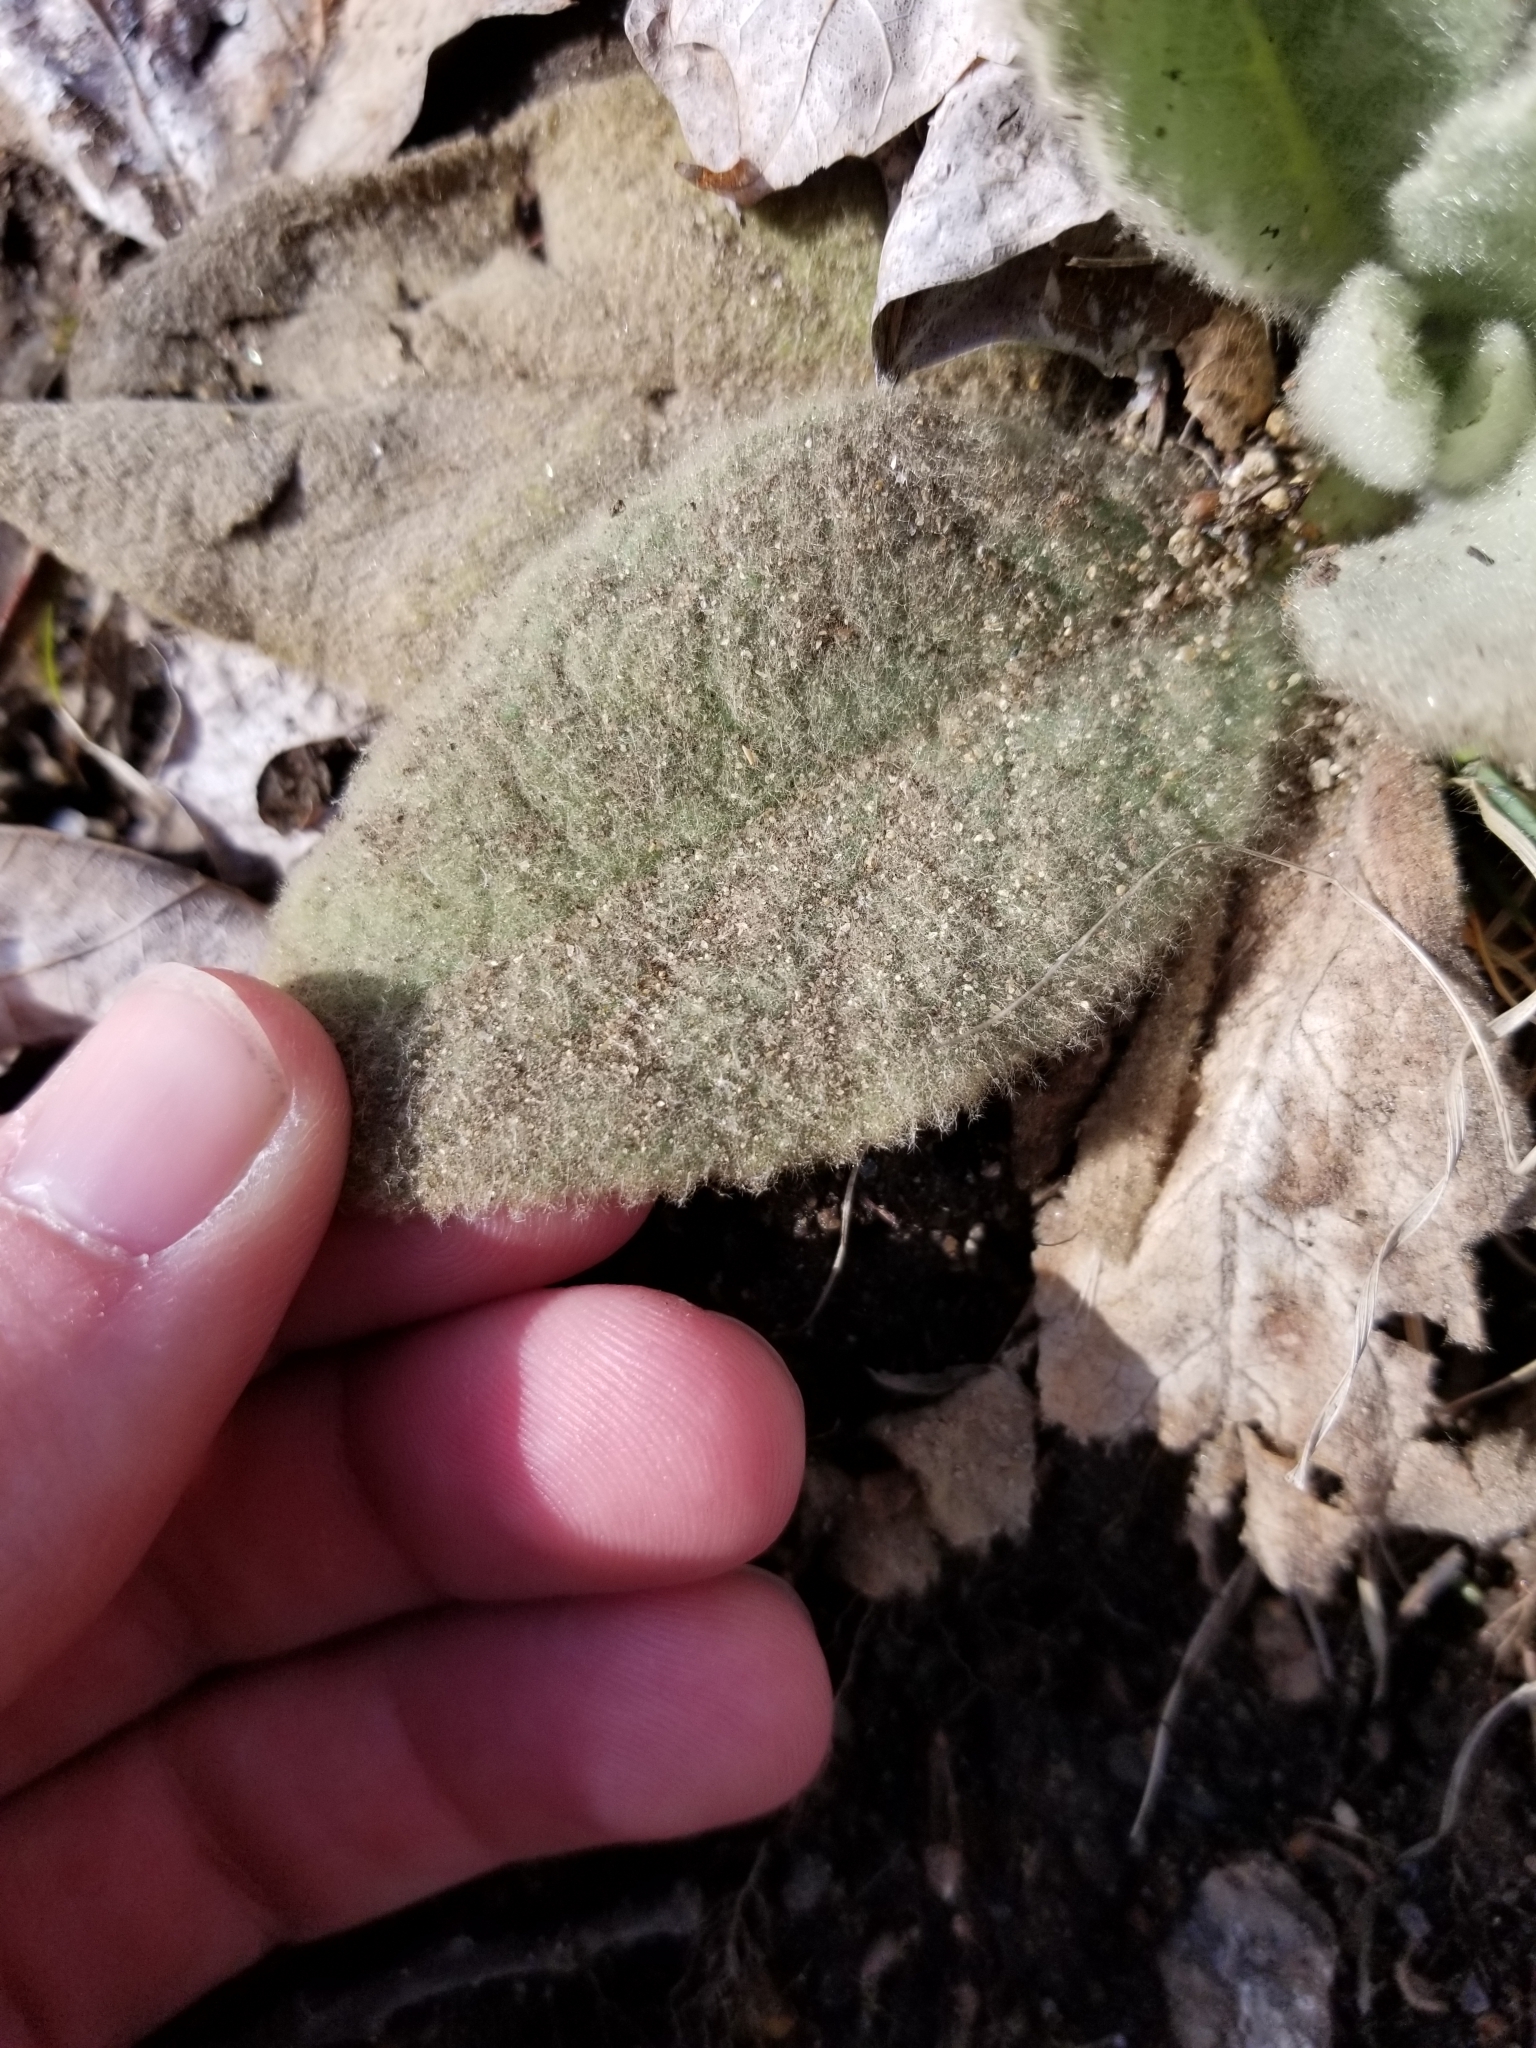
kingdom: Plantae
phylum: Tracheophyta
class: Magnoliopsida
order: Lamiales
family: Scrophulariaceae
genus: Verbascum
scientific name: Verbascum thapsus
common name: Common mullein
